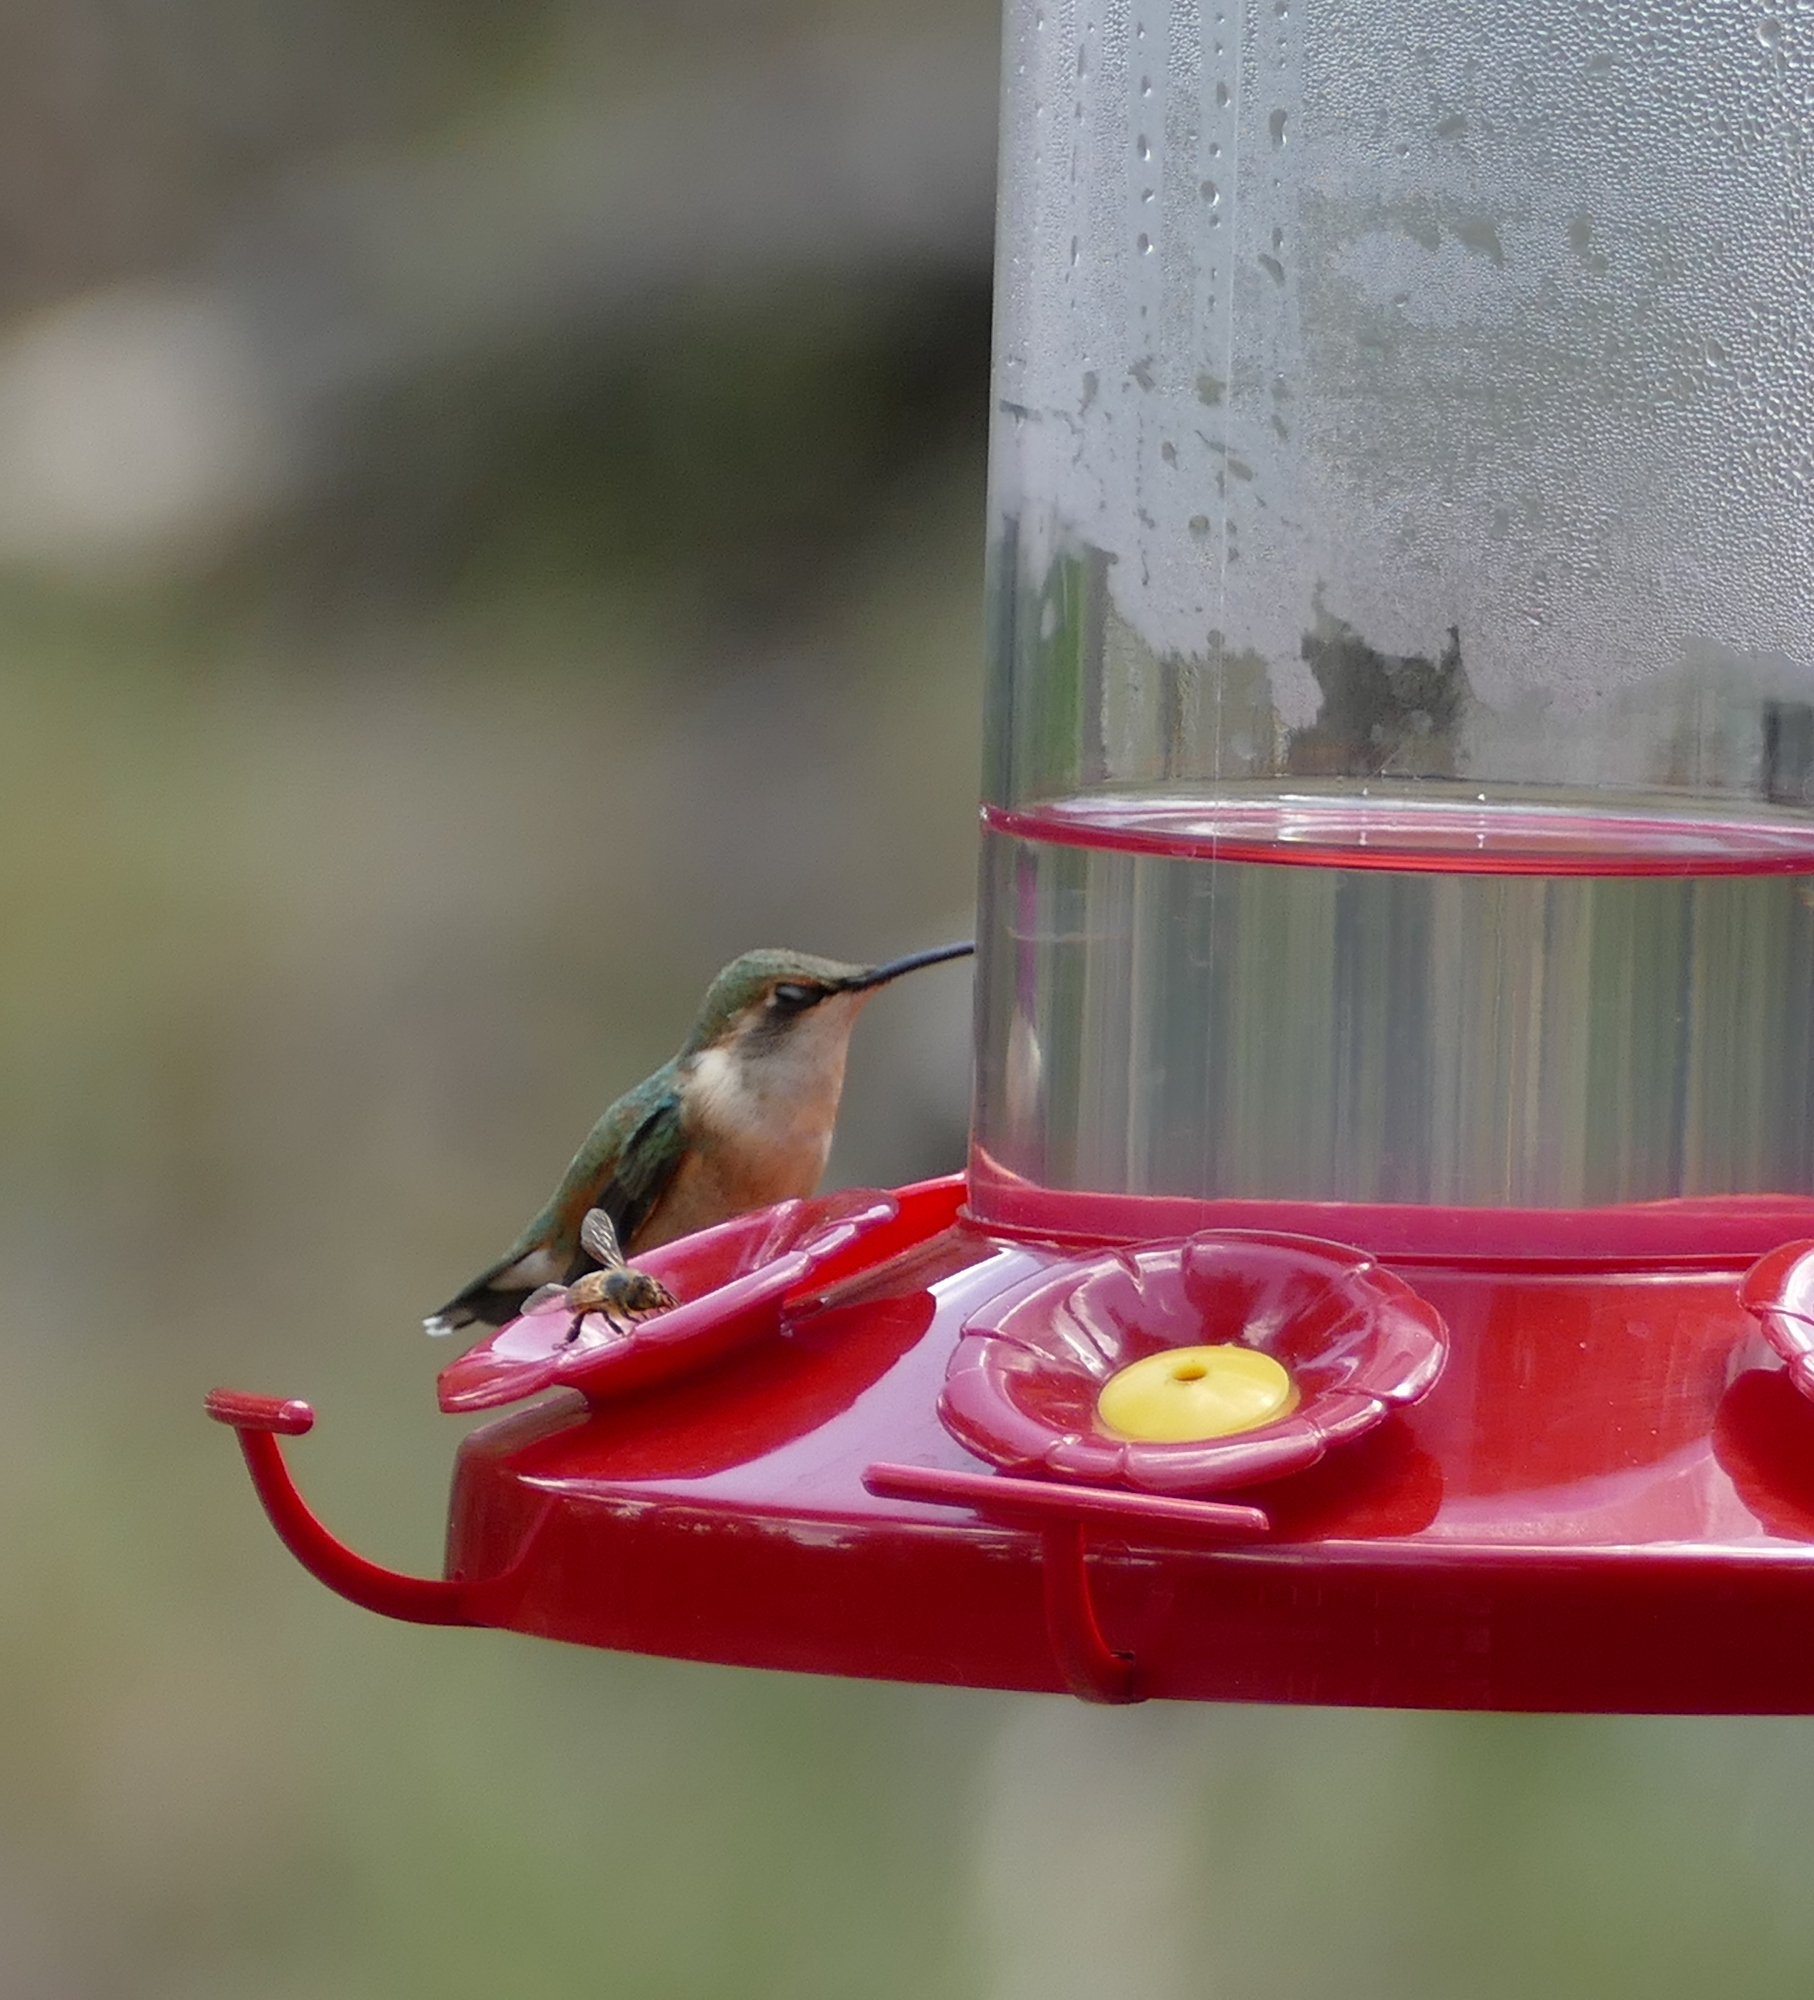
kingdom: Animalia
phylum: Chordata
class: Aves
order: Apodiformes
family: Trochilidae
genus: Calothorax
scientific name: Calothorax lucifer
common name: Lucifer sheartail
